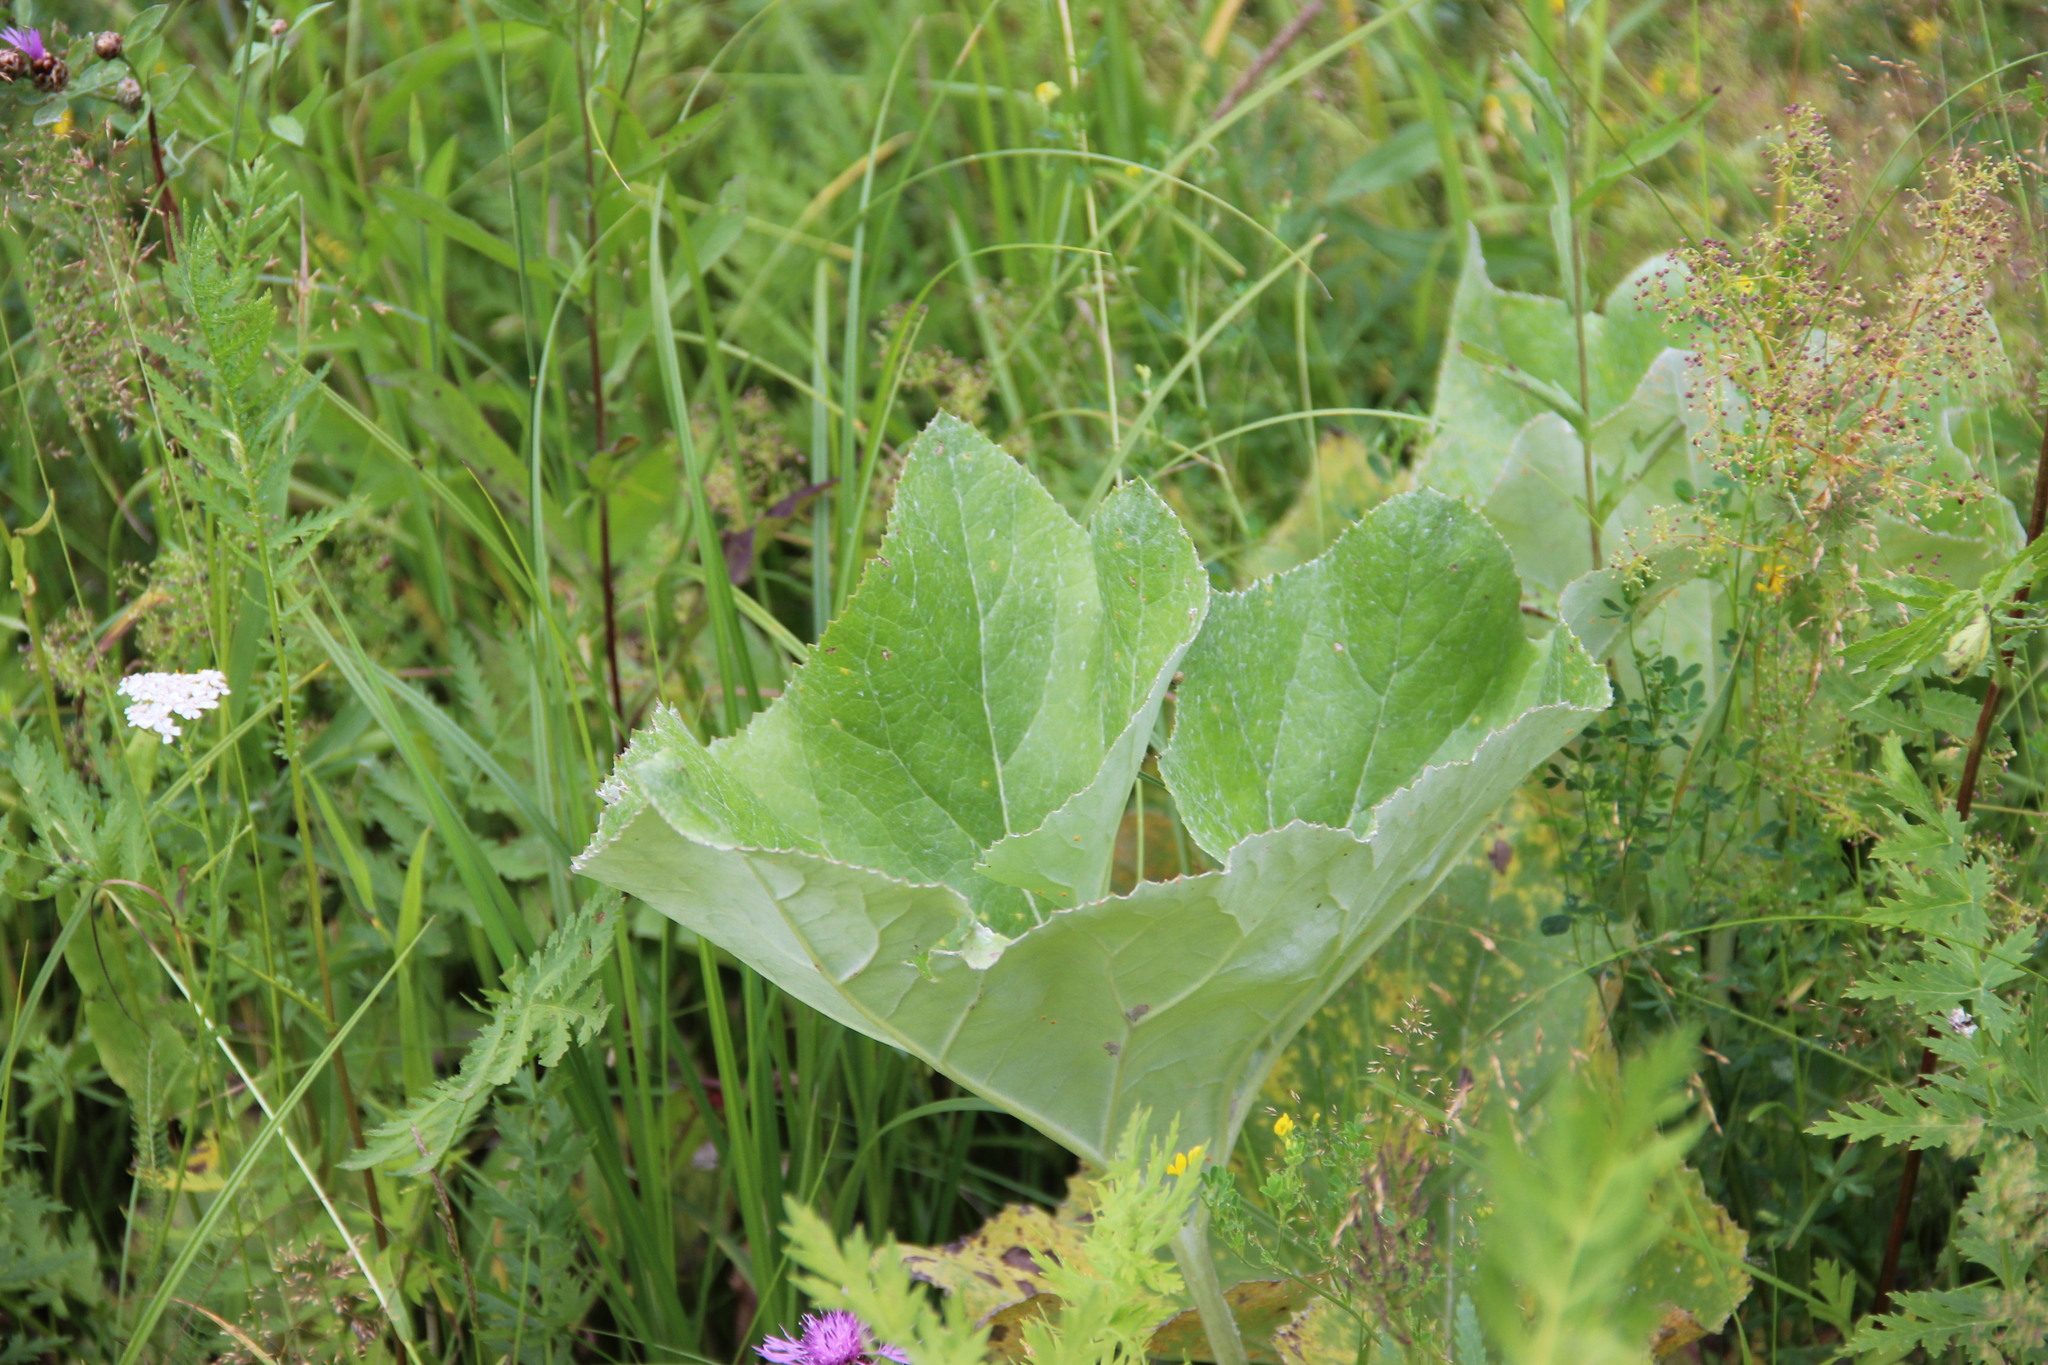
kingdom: Plantae
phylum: Tracheophyta
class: Magnoliopsida
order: Asterales
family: Asteraceae
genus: Petasites
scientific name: Petasites spurius
